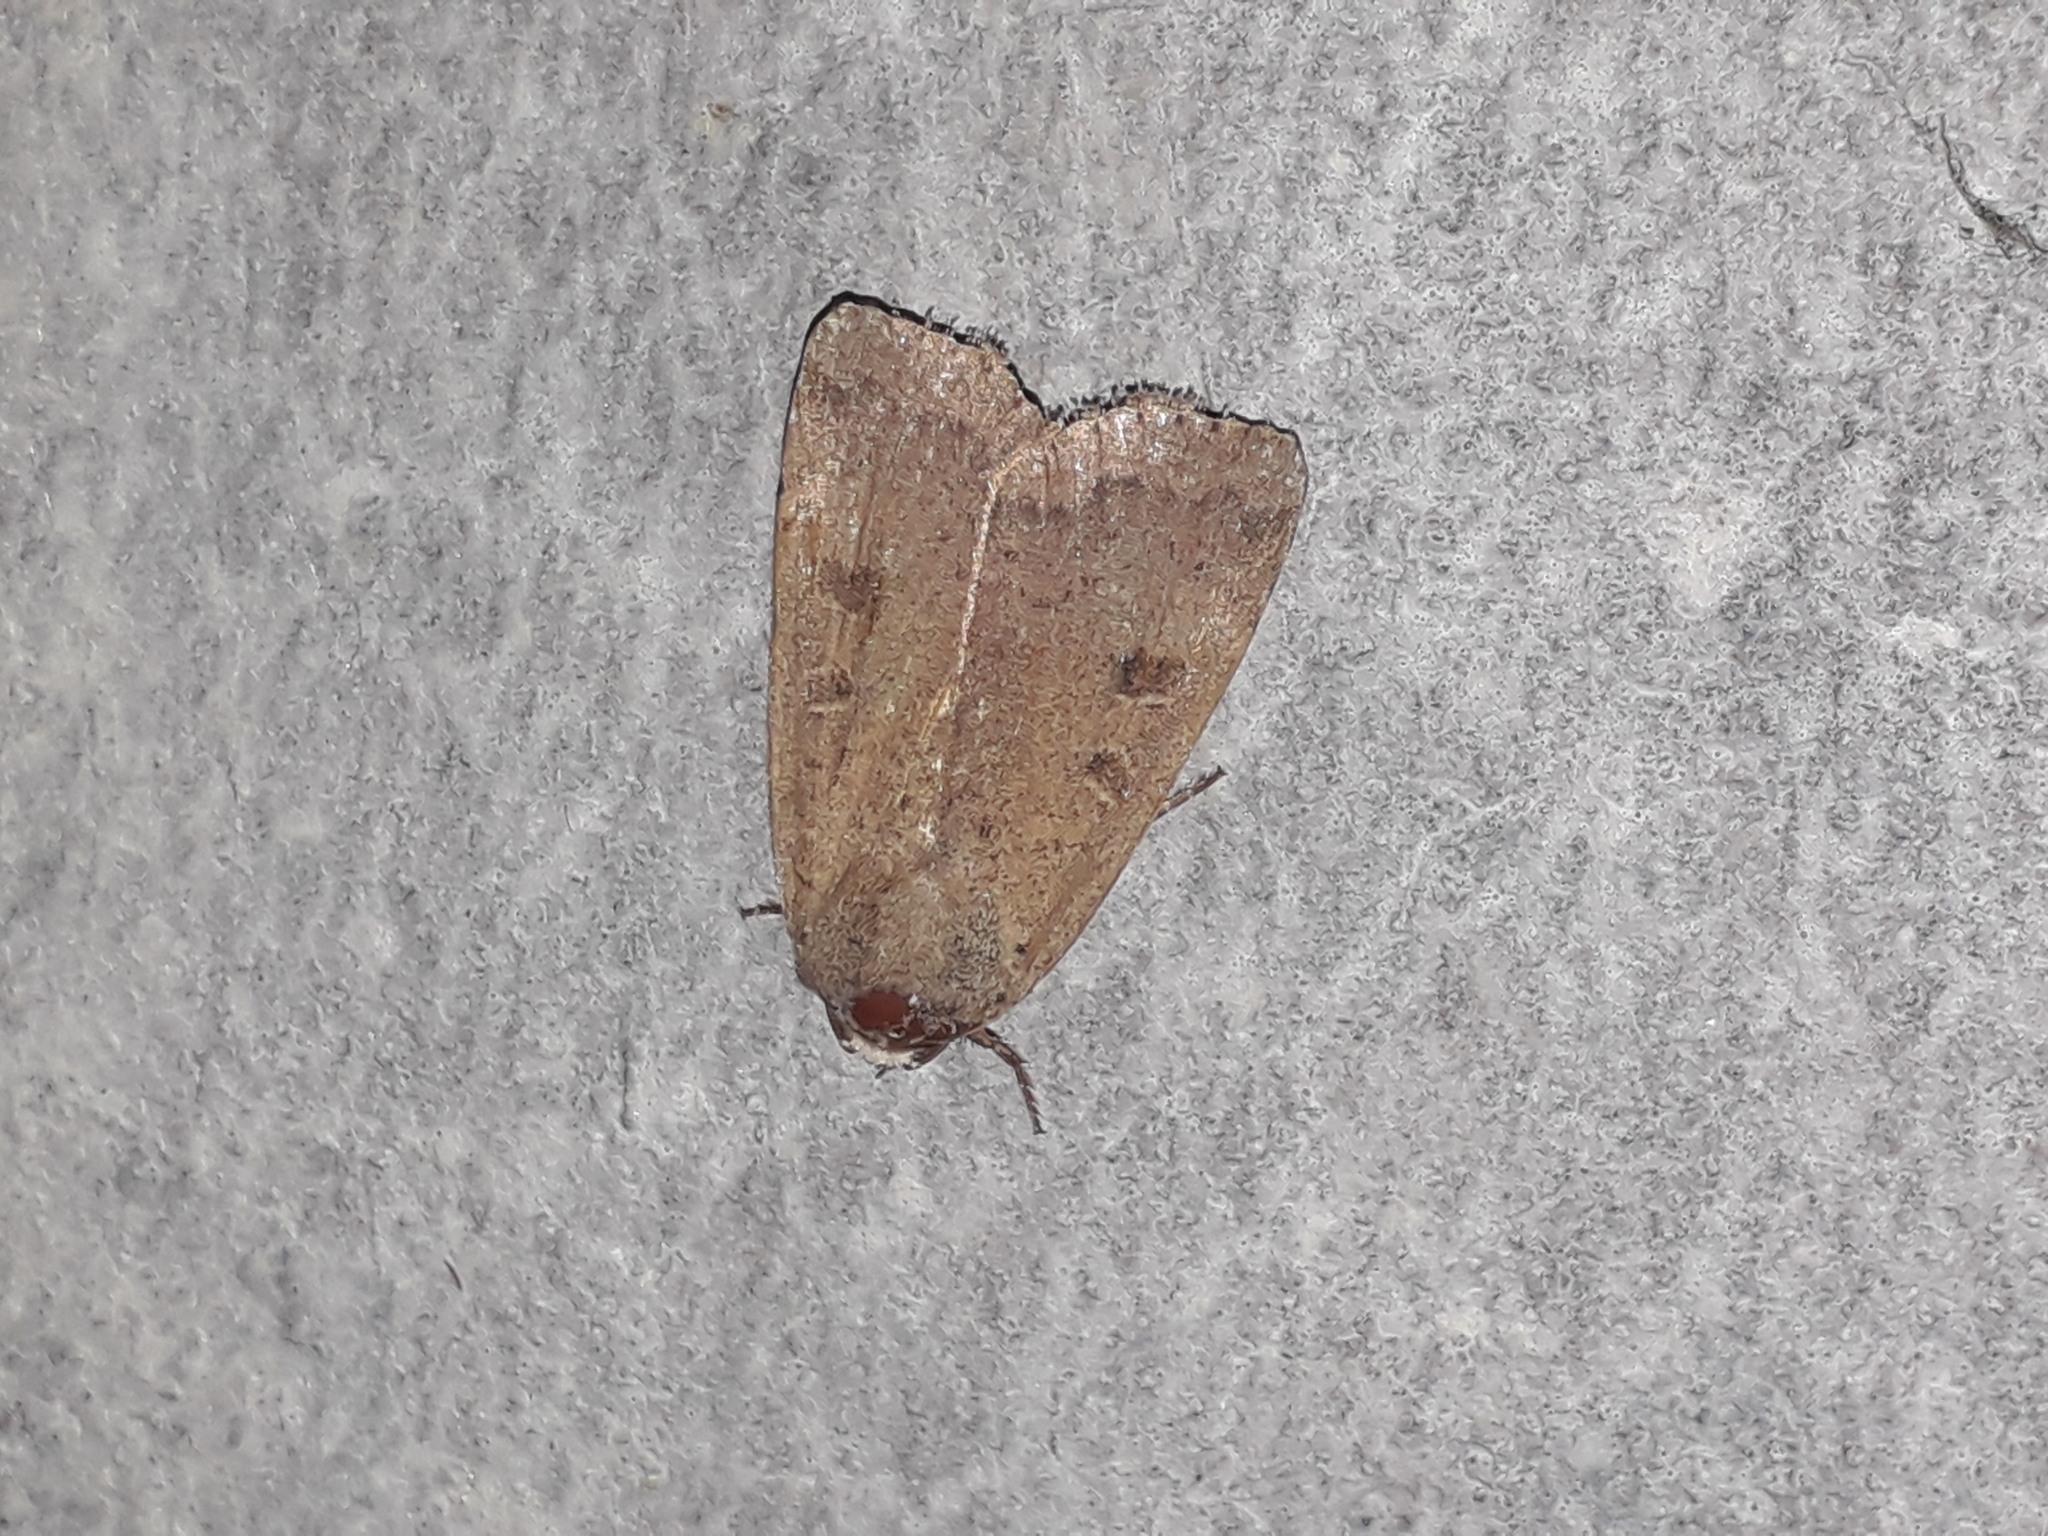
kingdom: Animalia
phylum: Arthropoda
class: Insecta
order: Lepidoptera
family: Noctuidae
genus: Noctua
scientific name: Noctua comes
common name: Lesser yellow underwing
